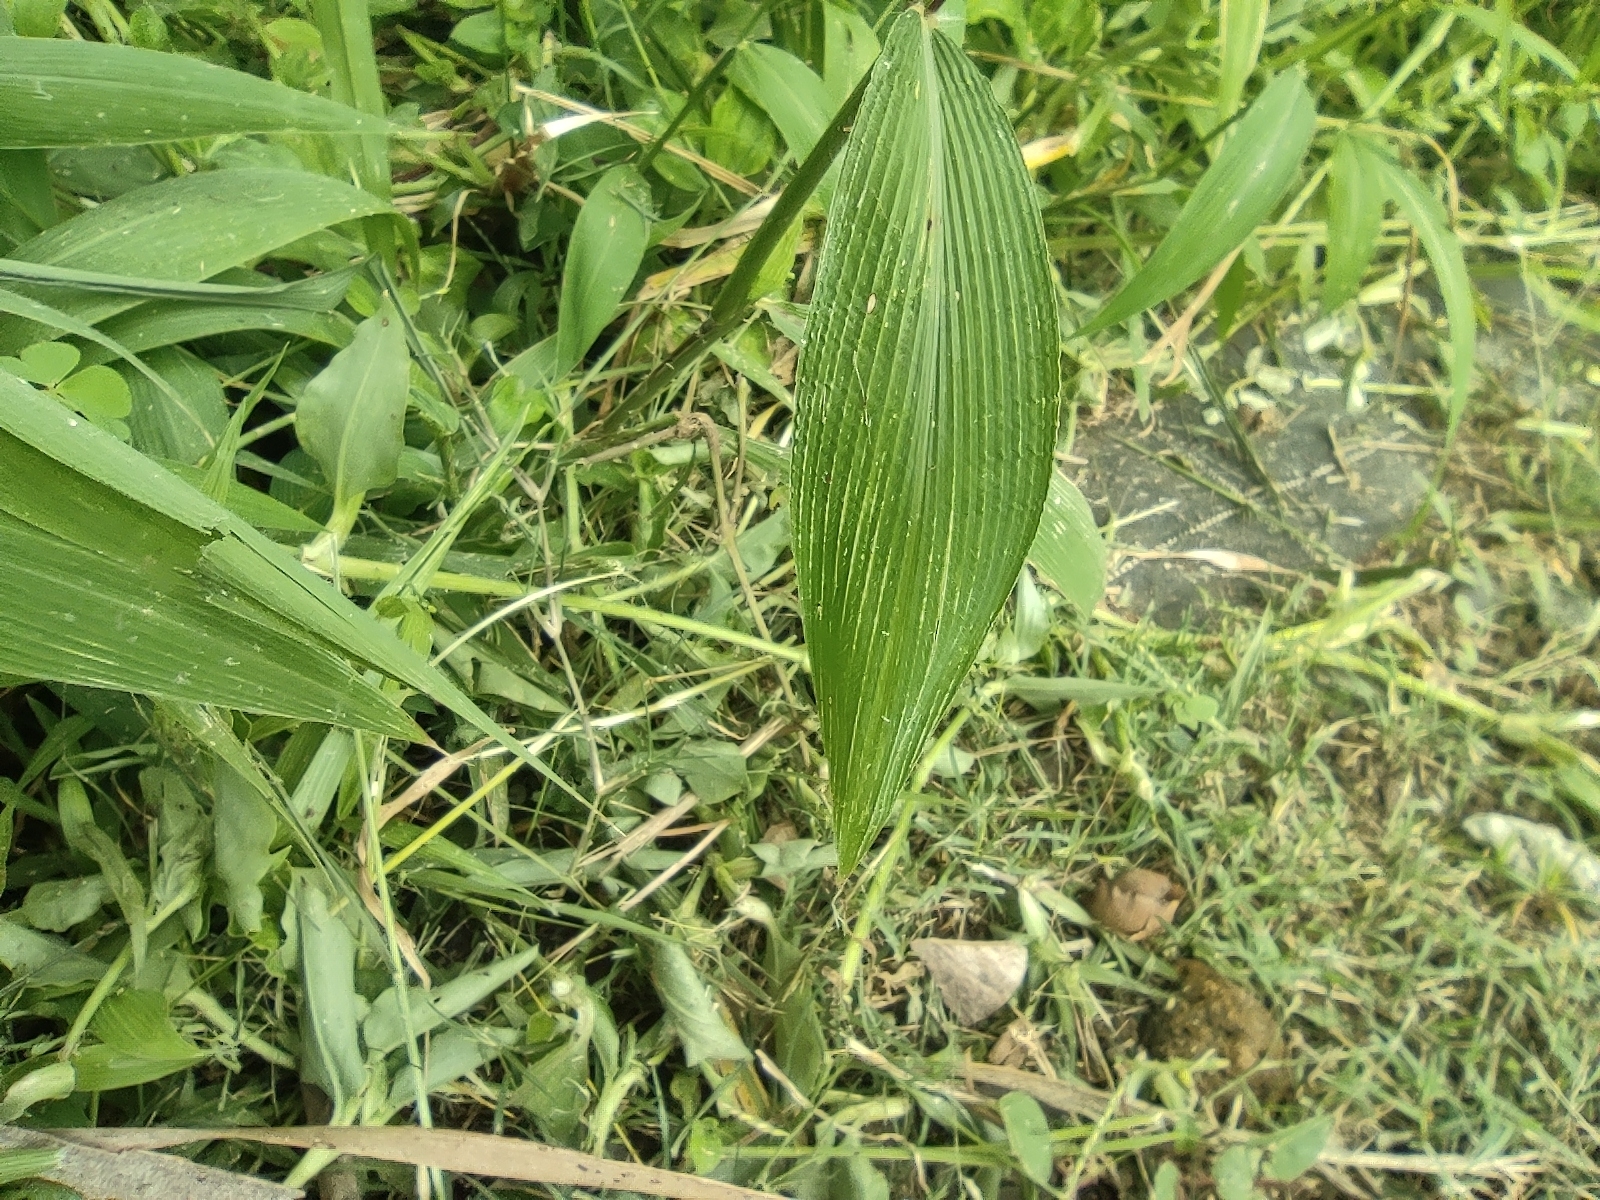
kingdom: Plantae
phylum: Tracheophyta
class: Liliopsida
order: Poales
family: Poaceae
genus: Setaria
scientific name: Setaria barbata
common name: East indian bristlegrass
